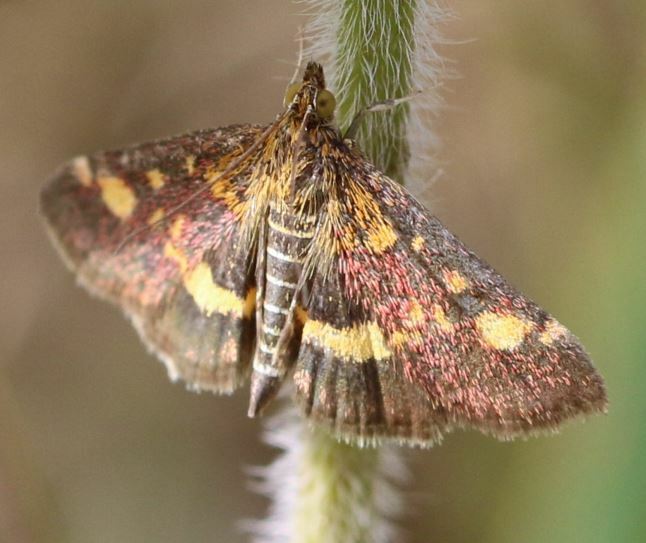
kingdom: Animalia
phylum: Arthropoda
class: Insecta
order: Lepidoptera
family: Crambidae
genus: Pyrausta
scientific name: Pyrausta aurata
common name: Small purple & gold
